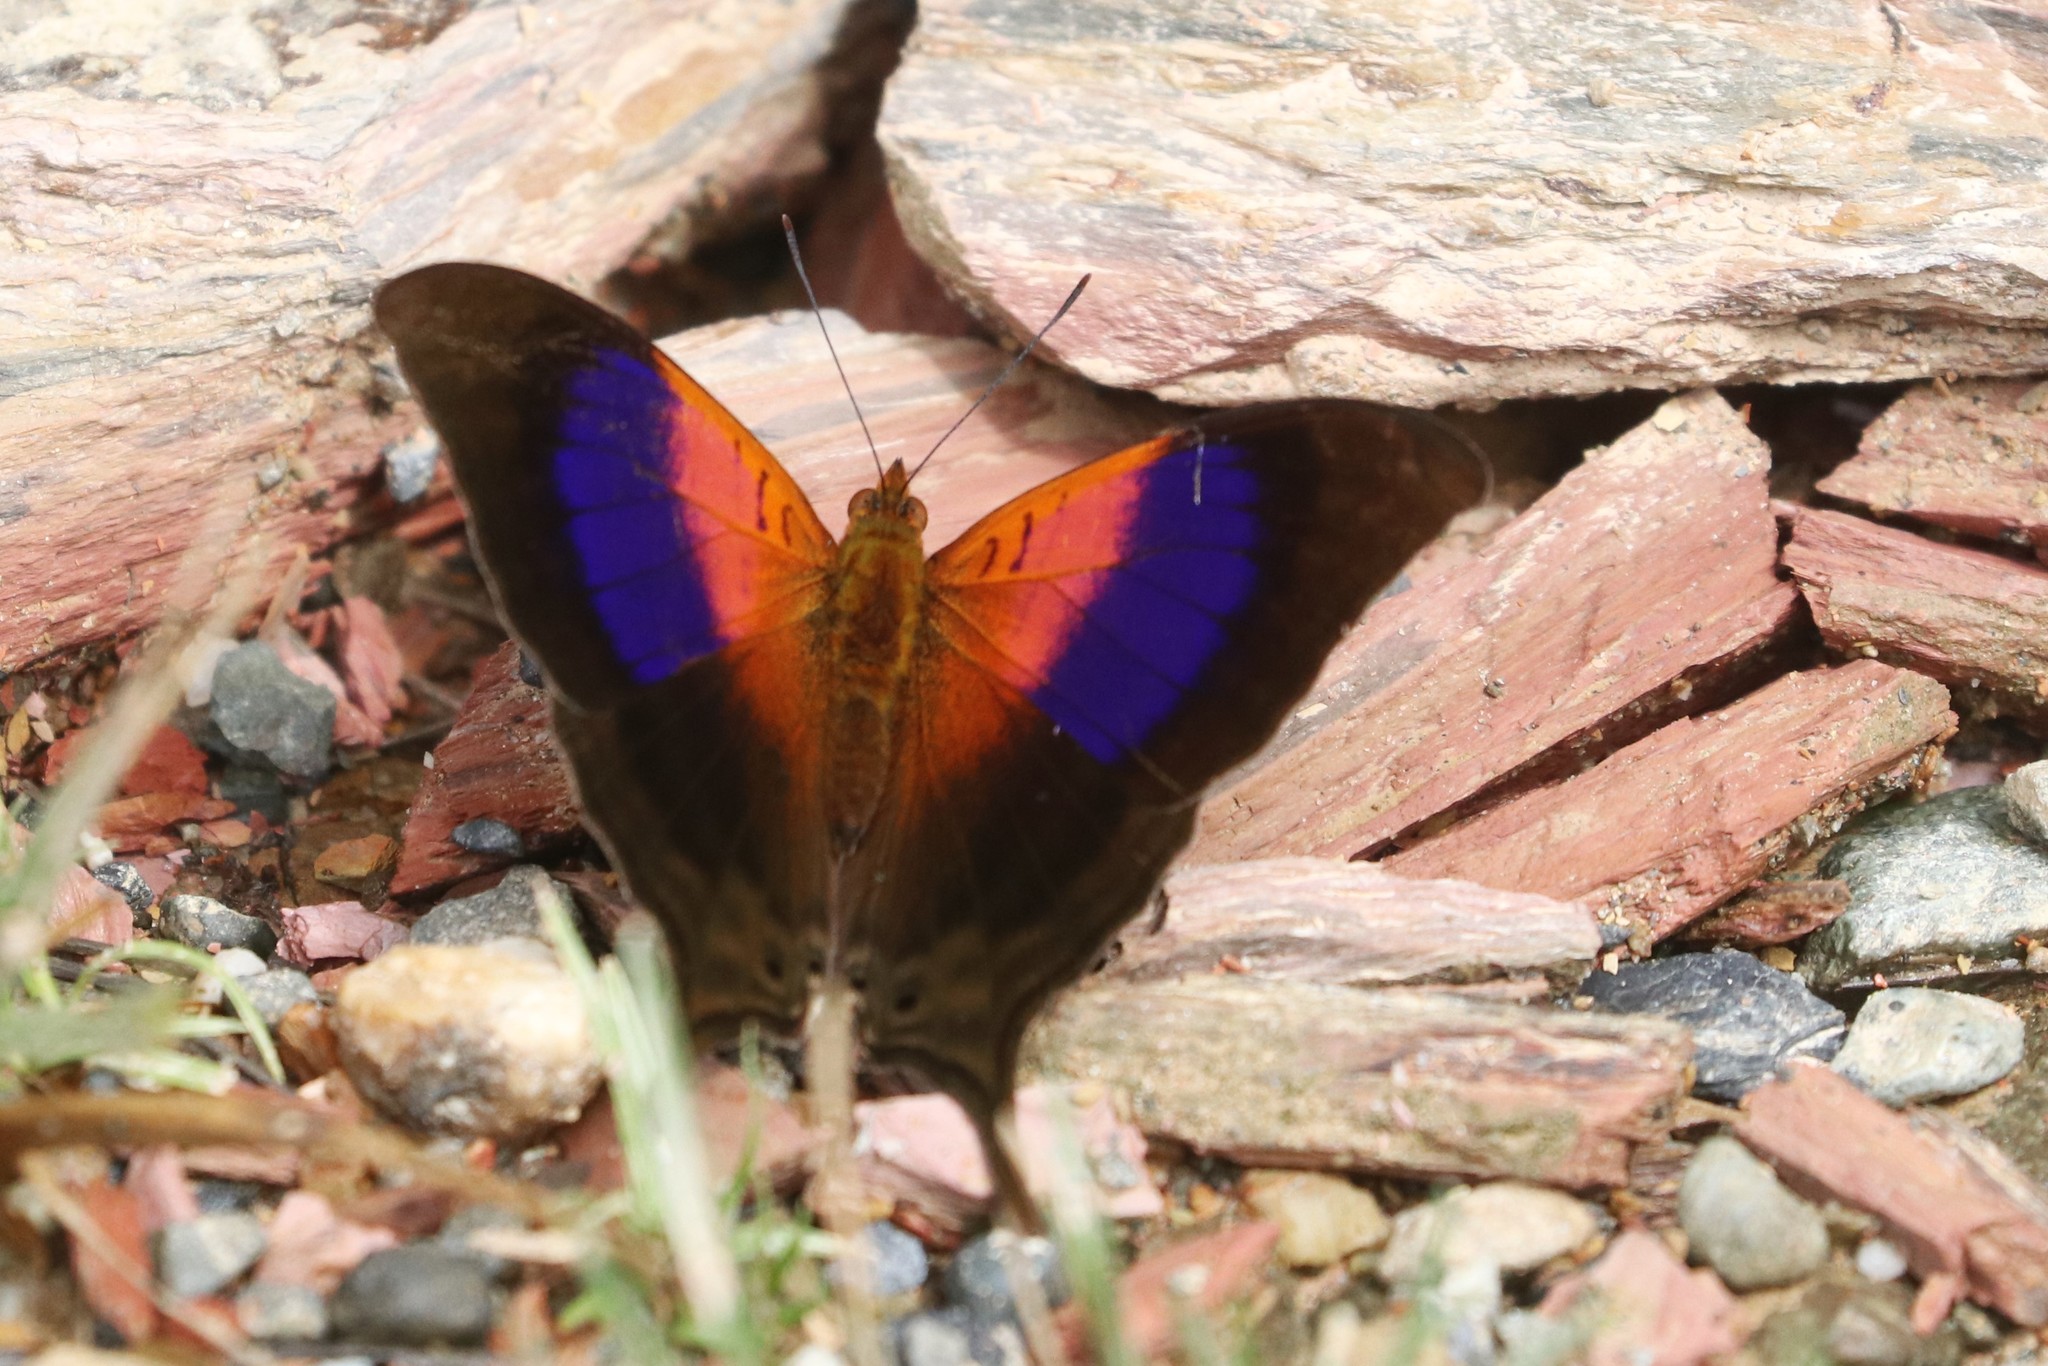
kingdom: Animalia
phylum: Arthropoda
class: Insecta
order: Lepidoptera
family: Nymphalidae
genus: Marpesia
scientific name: Marpesia furcula
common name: Sunset daggerwing
